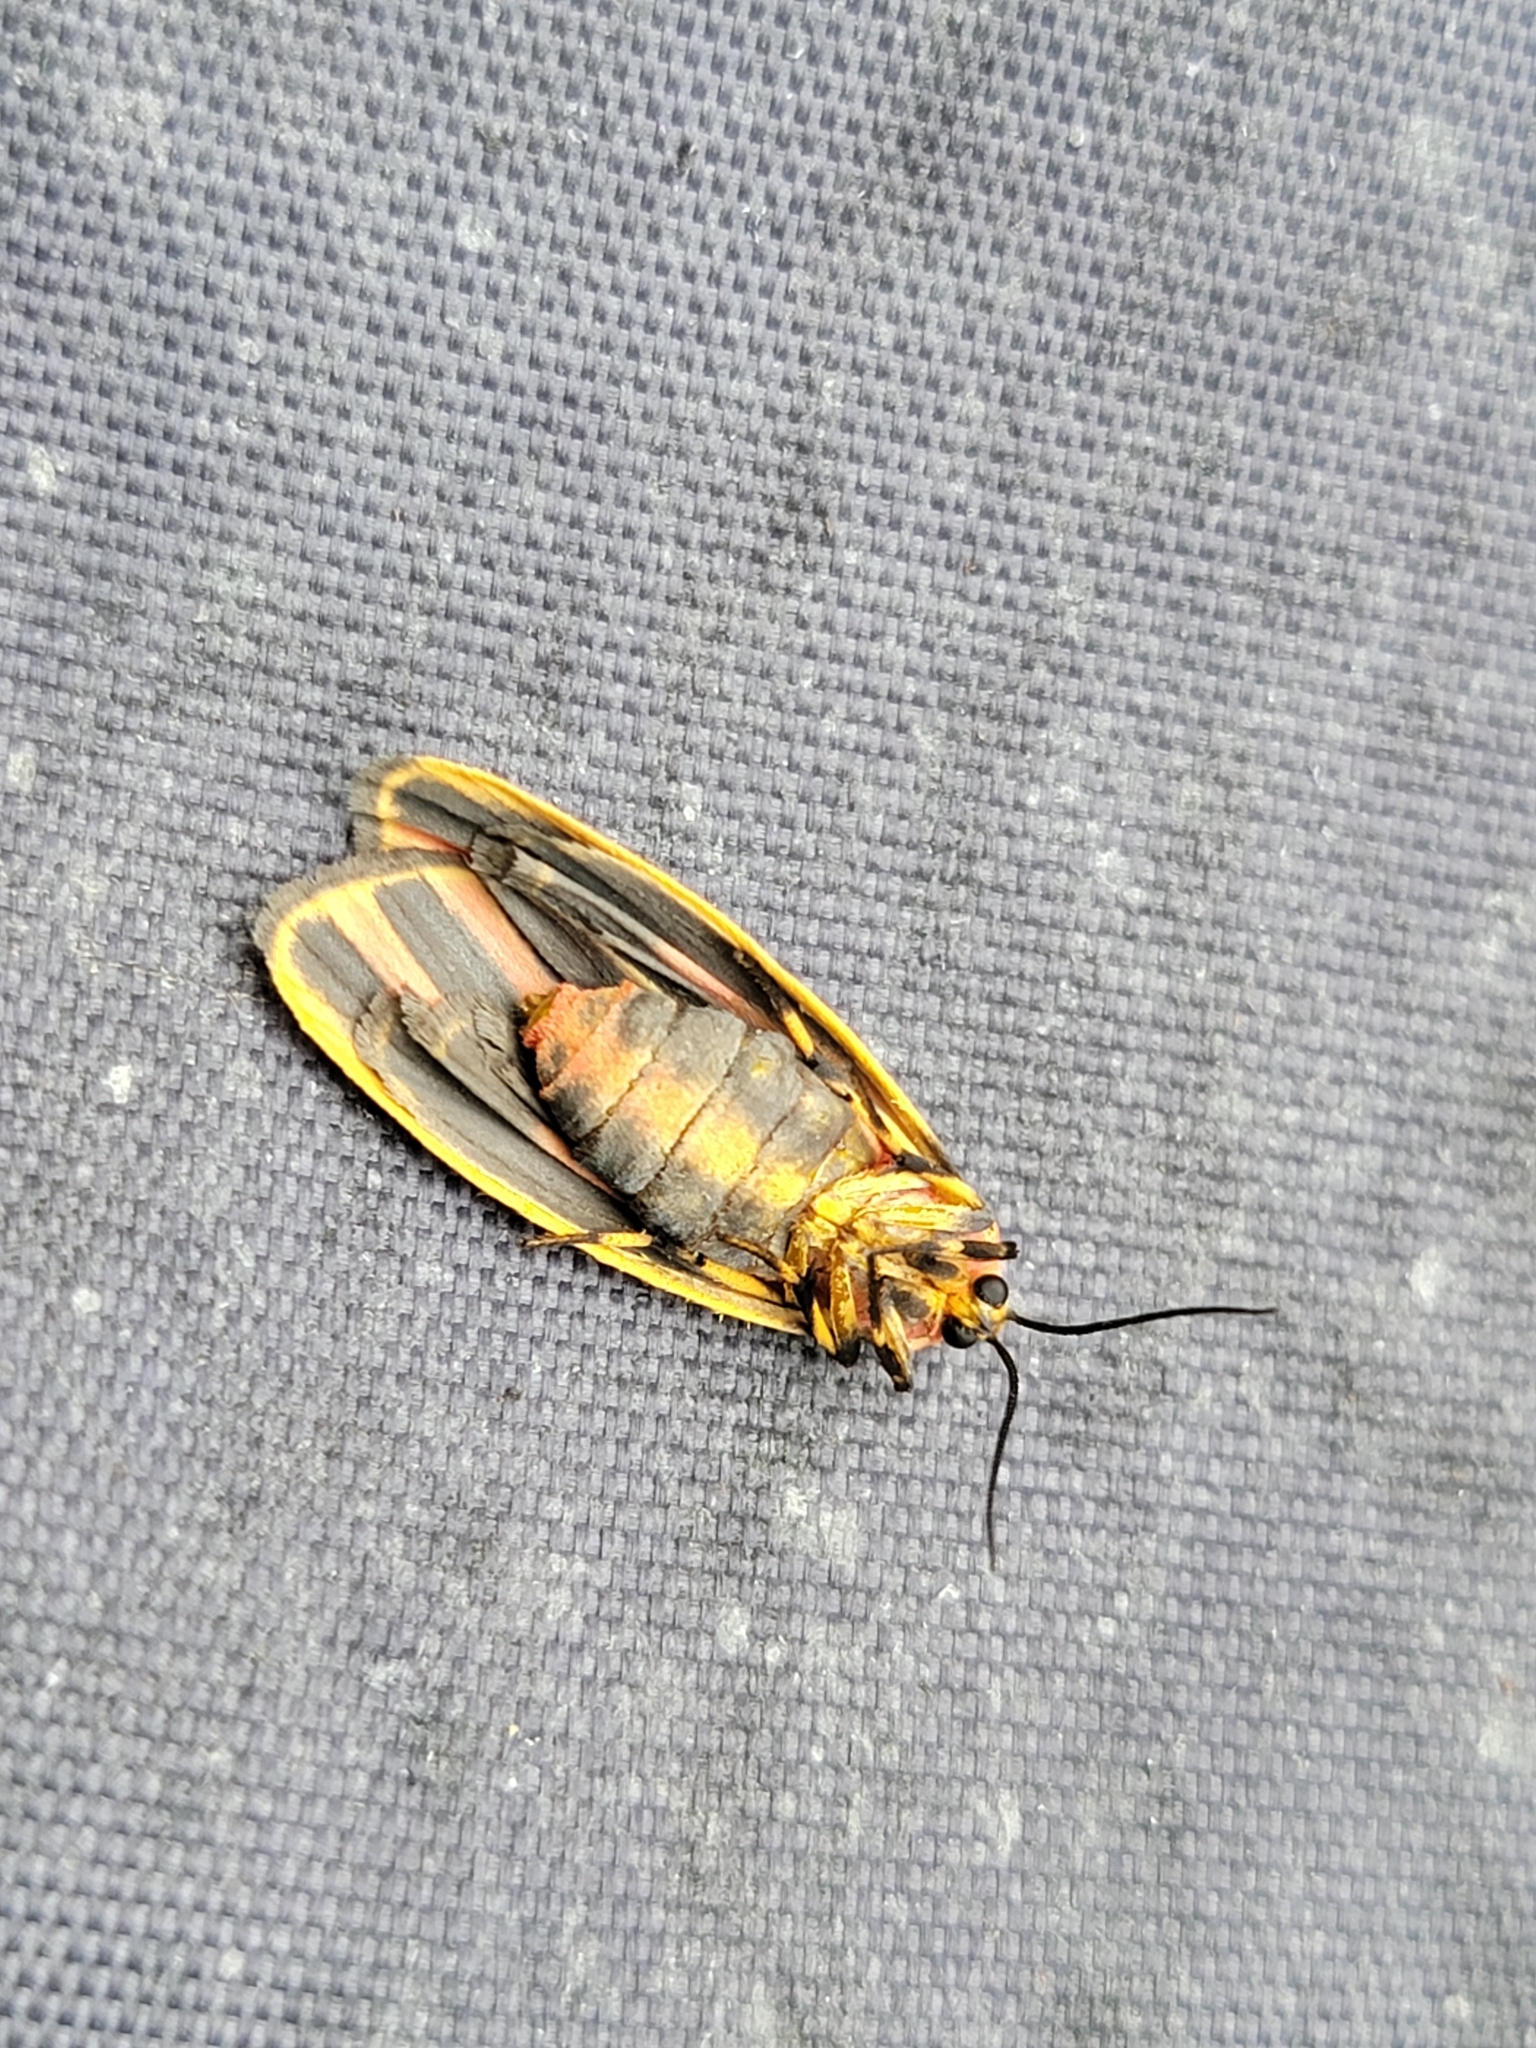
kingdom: Animalia
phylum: Arthropoda
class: Insecta
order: Lepidoptera
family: Erebidae
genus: Hypoprepia
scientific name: Hypoprepia fucosa
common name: Painted lichen moth
